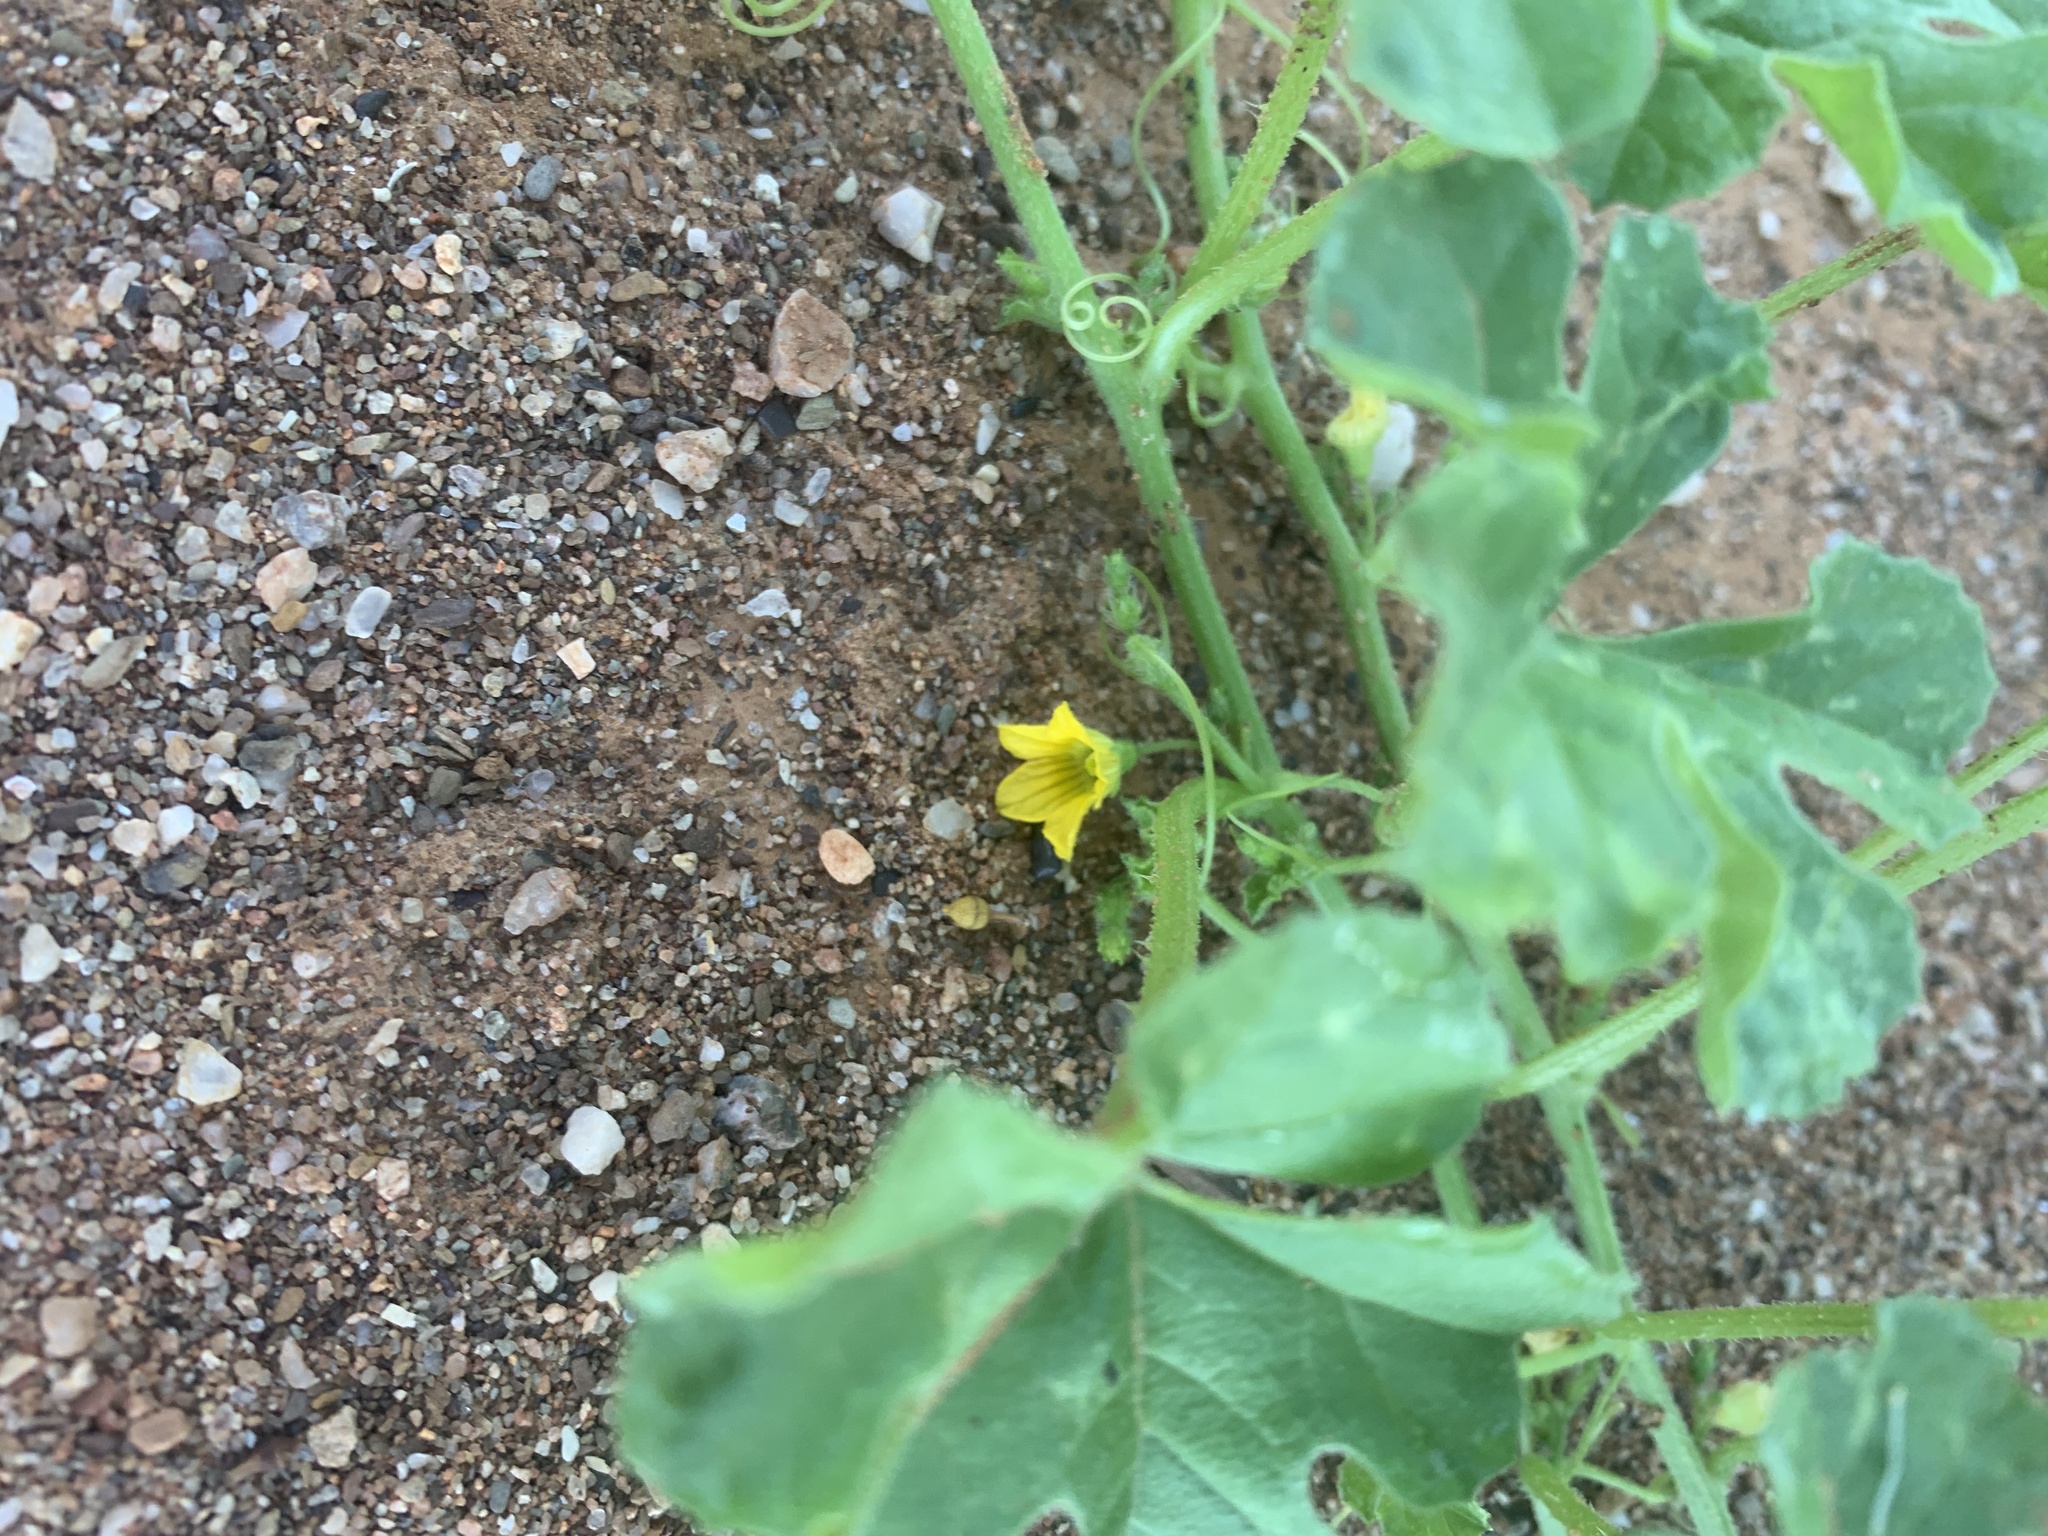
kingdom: Plantae
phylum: Tracheophyta
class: Magnoliopsida
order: Cucurbitales
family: Cucurbitaceae
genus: Cucumis
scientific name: Cucumis myriocarpus
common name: Gooseberry cucumber
